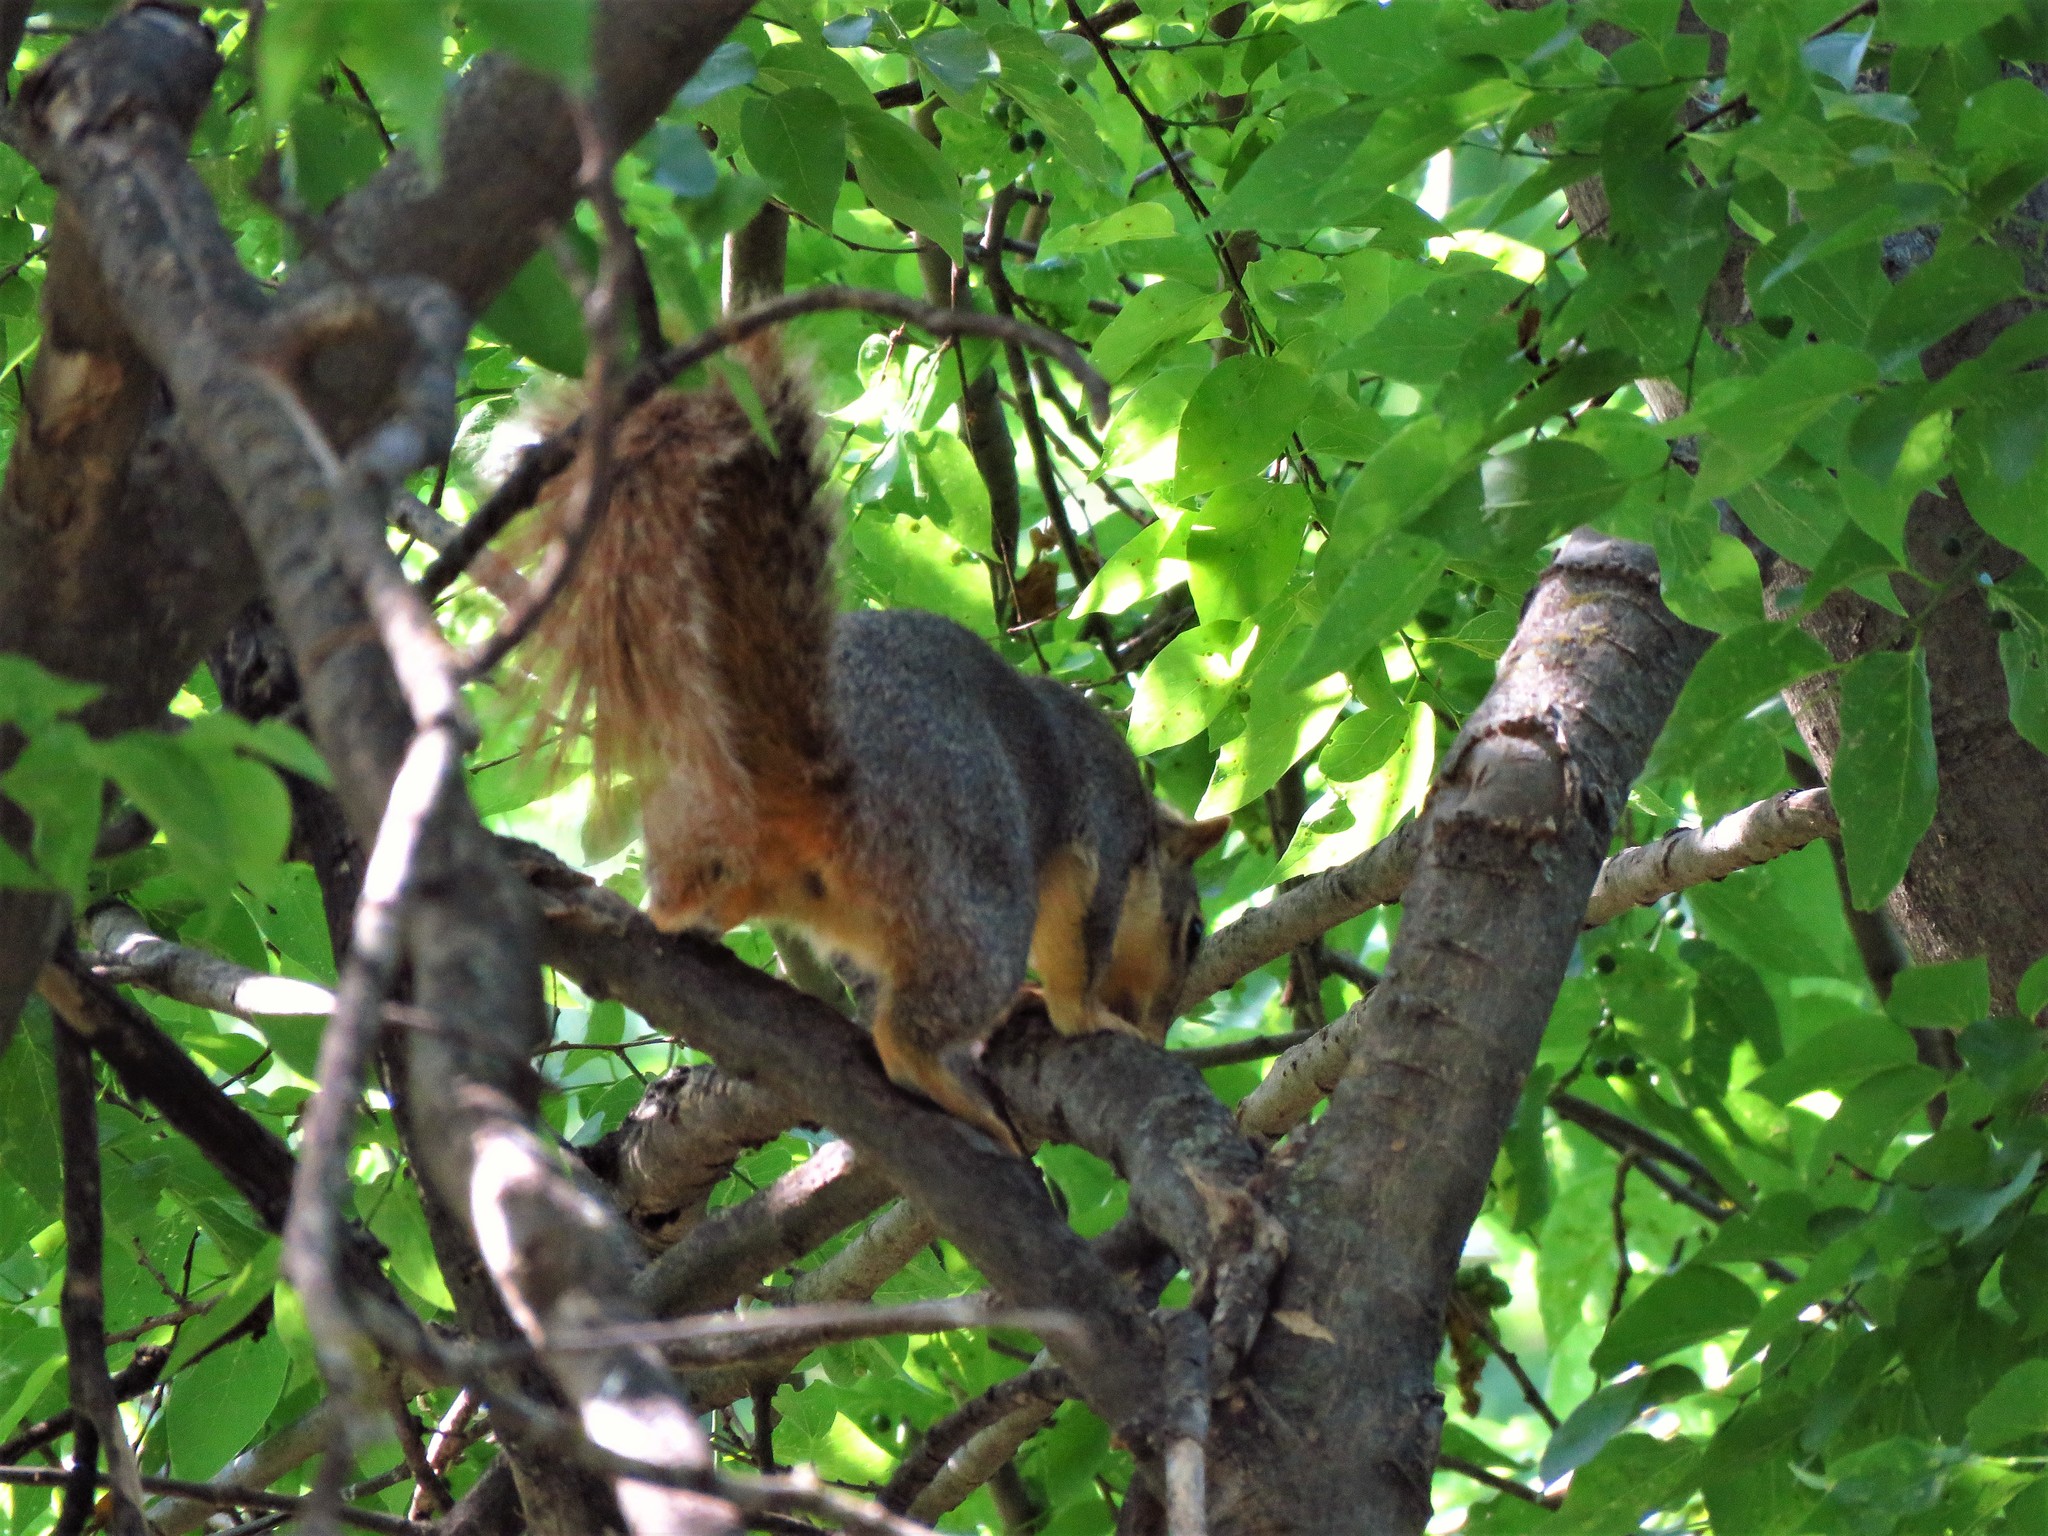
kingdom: Animalia
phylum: Chordata
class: Mammalia
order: Rodentia
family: Sciuridae
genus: Sciurus
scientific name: Sciurus niger
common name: Fox squirrel
